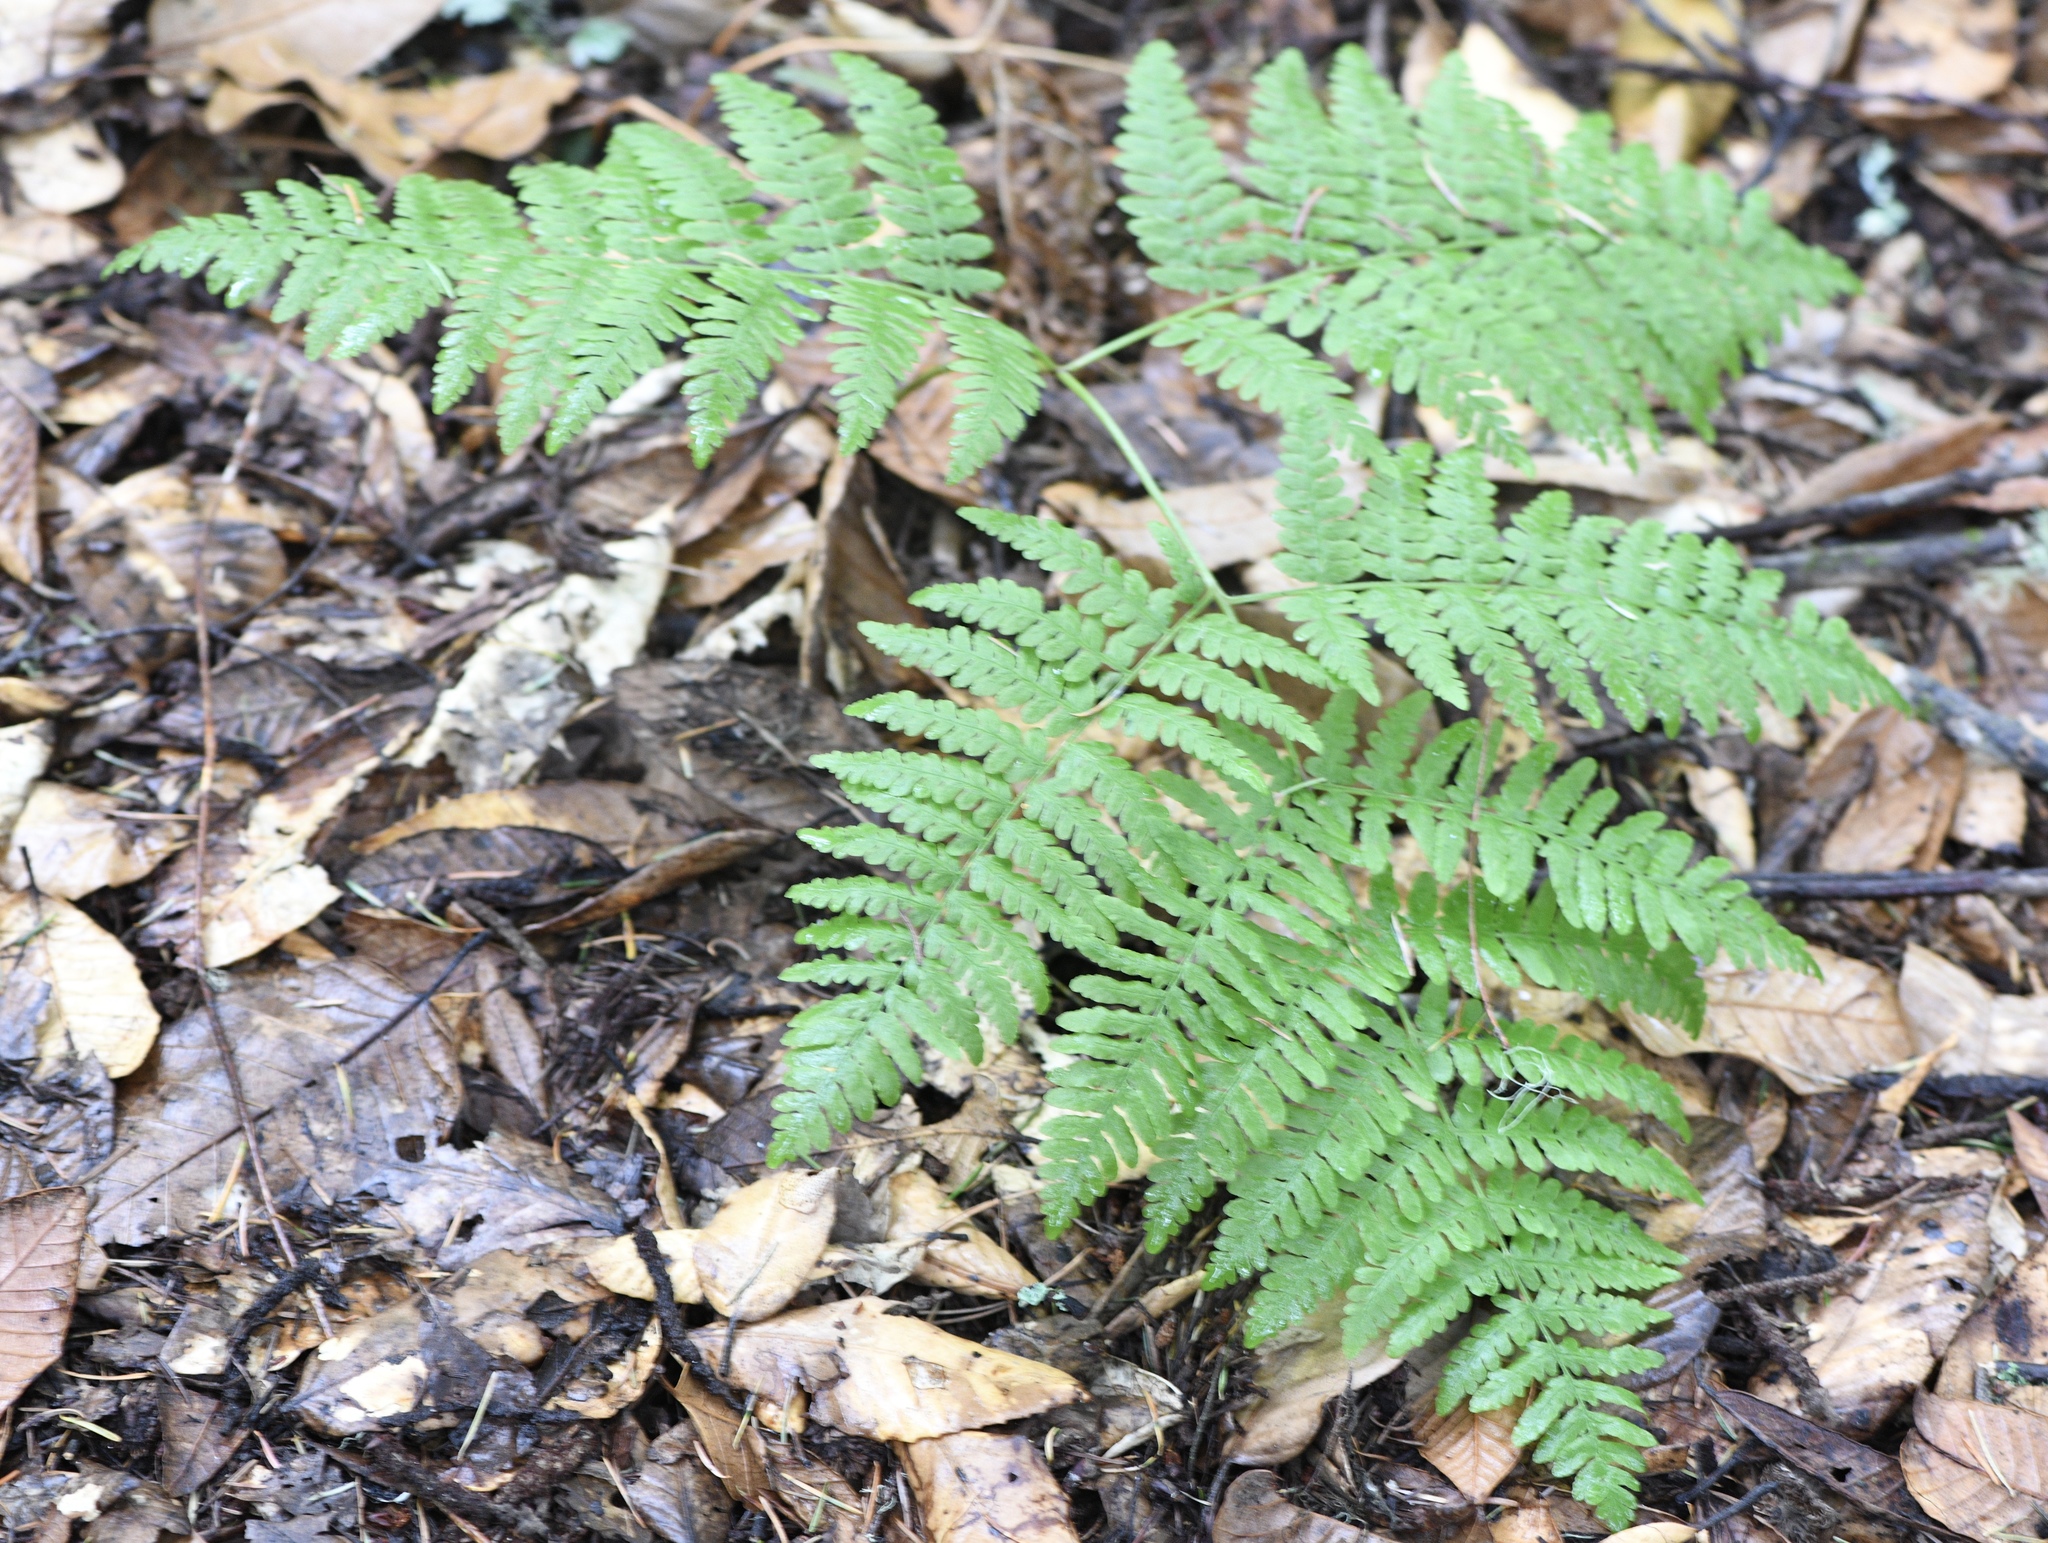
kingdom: Plantae
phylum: Tracheophyta
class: Polypodiopsida
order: Polypodiales
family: Dennstaedtiaceae
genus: Pteridium
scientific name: Pteridium aquilinum
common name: Bracken
